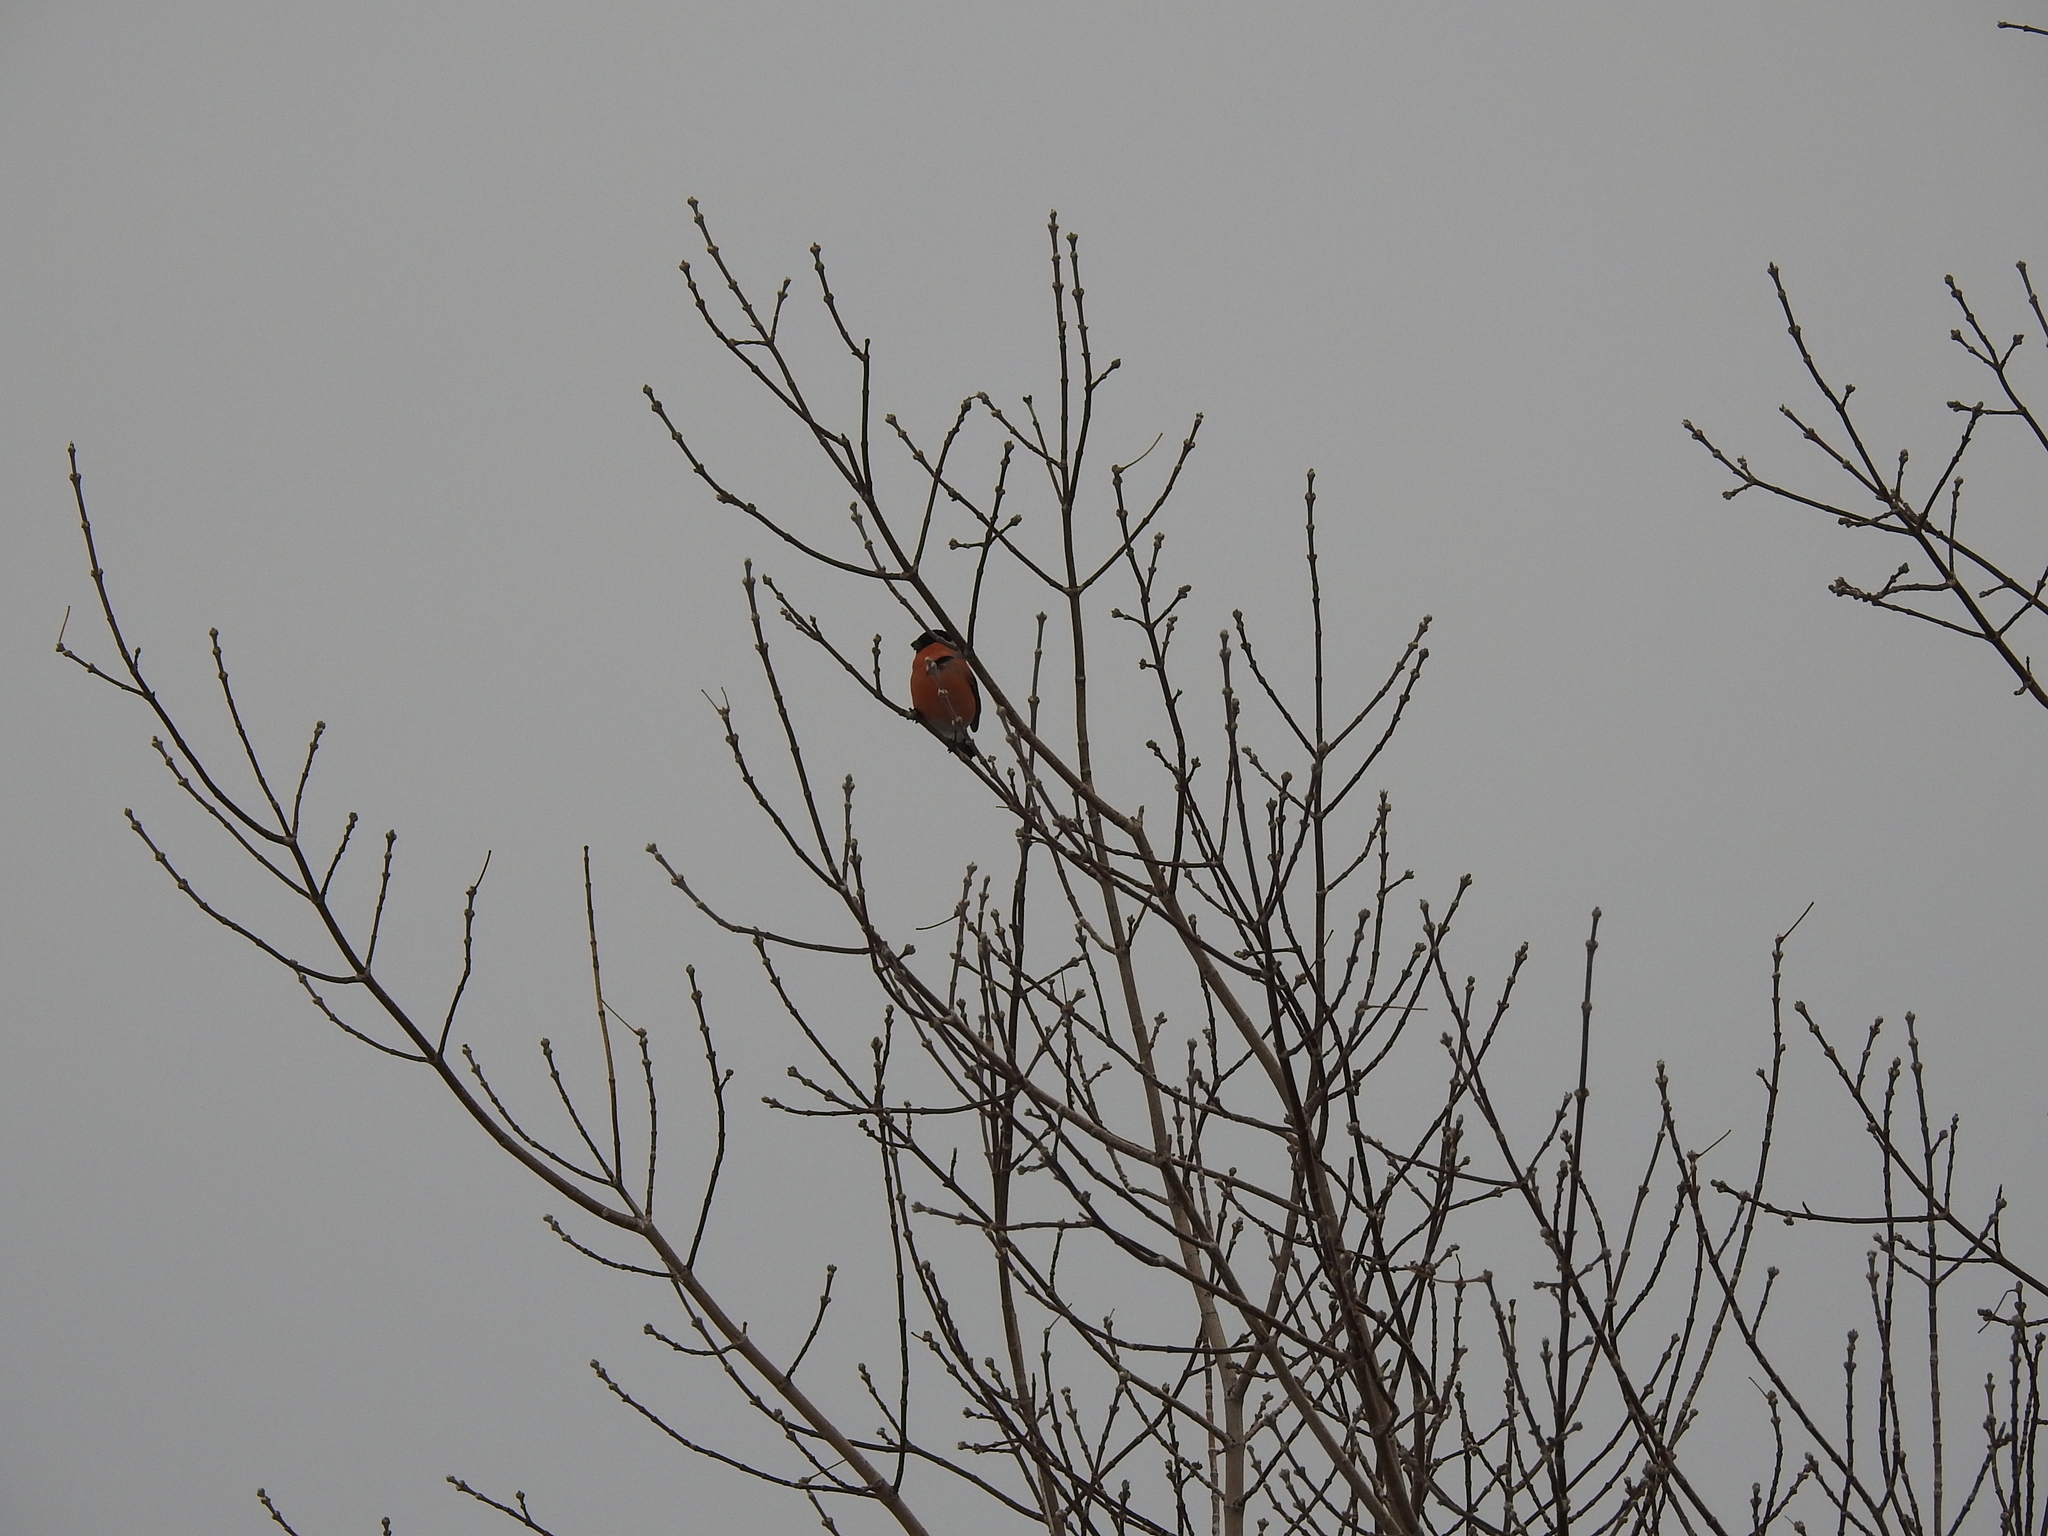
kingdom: Animalia
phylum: Chordata
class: Aves
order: Passeriformes
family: Fringillidae
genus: Pyrrhula
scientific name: Pyrrhula pyrrhula
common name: Eurasian bullfinch
